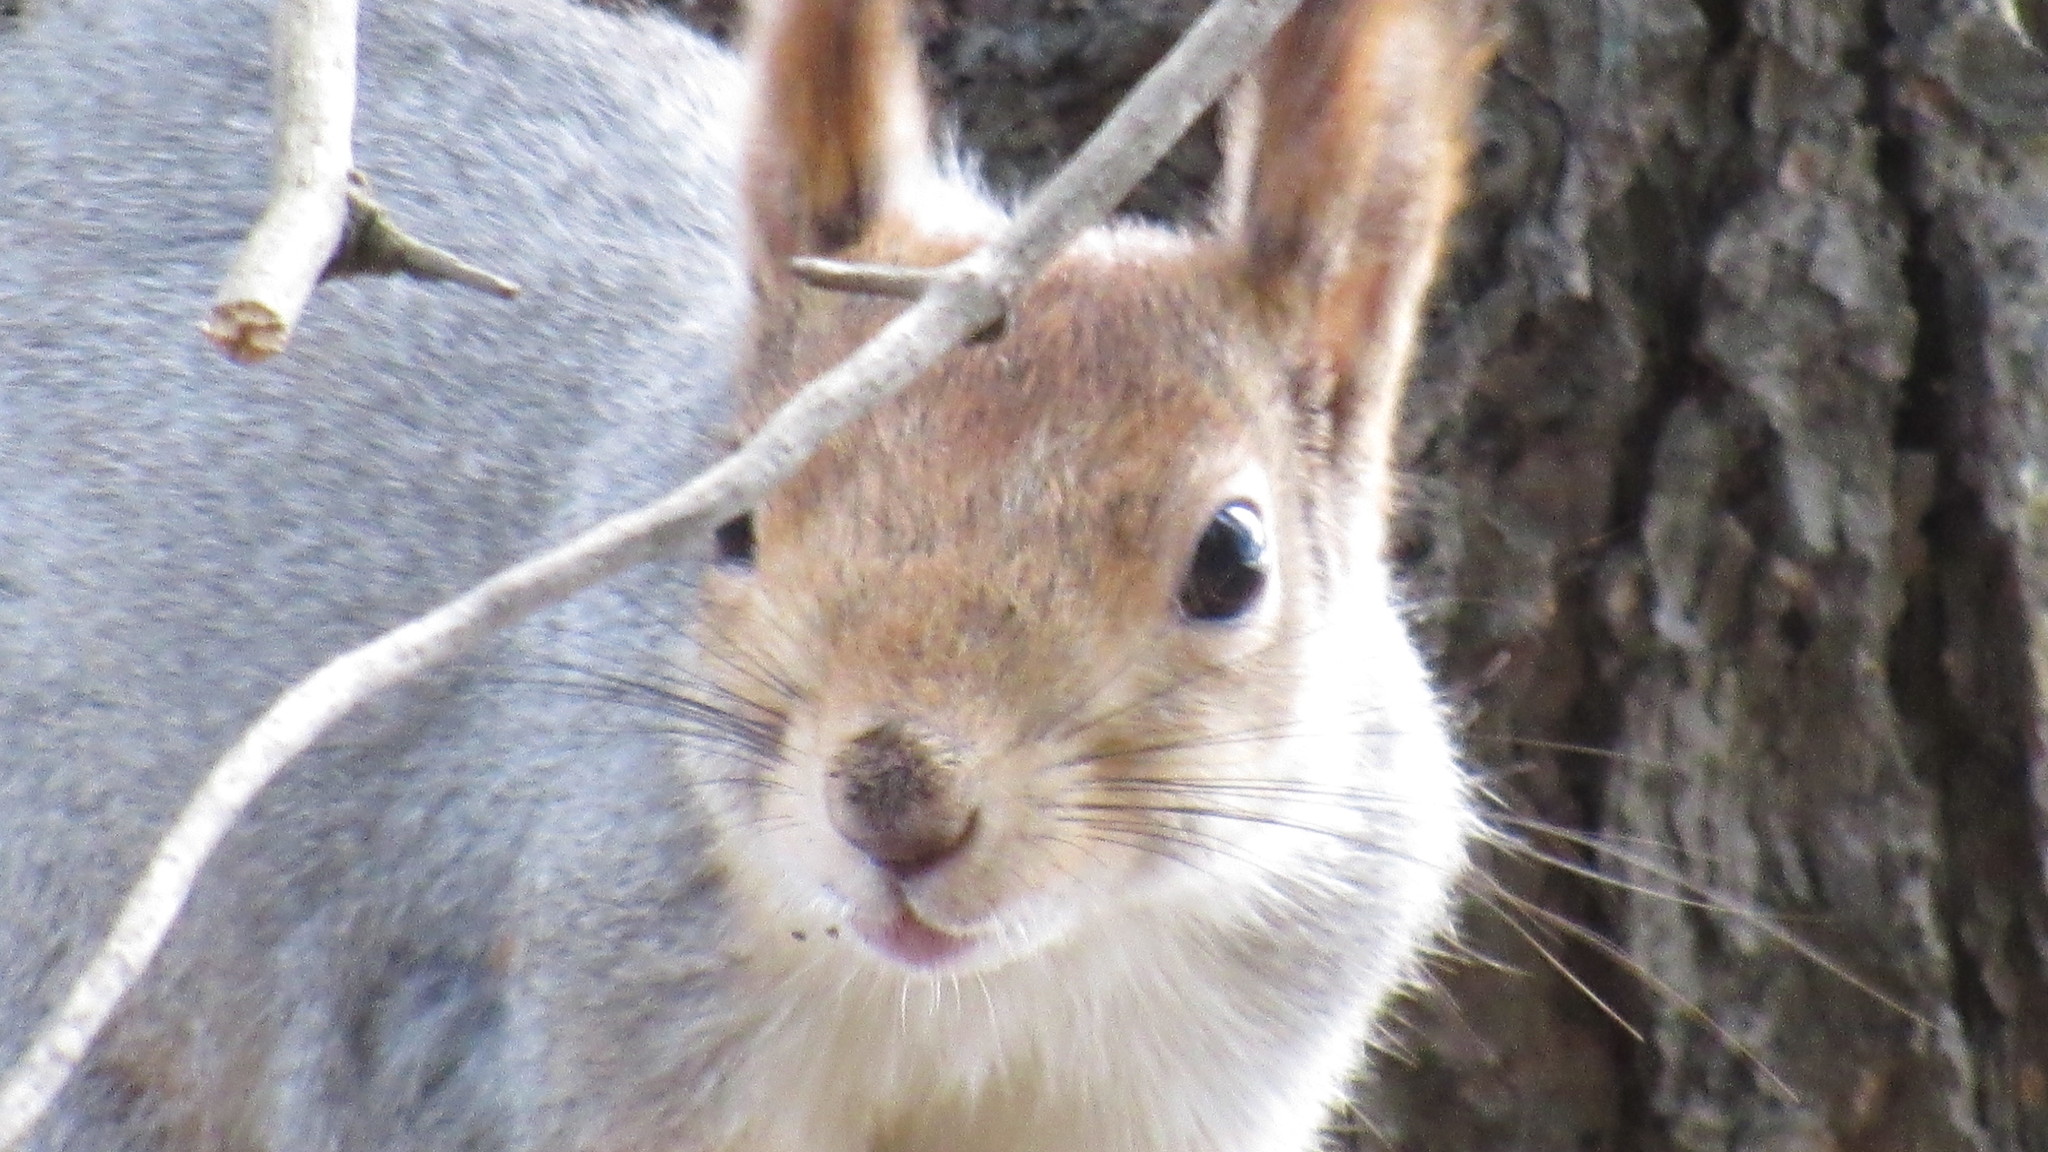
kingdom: Animalia
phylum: Chordata
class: Mammalia
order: Rodentia
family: Sciuridae
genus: Sciurus
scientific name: Sciurus vulgaris
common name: Eurasian red squirrel
